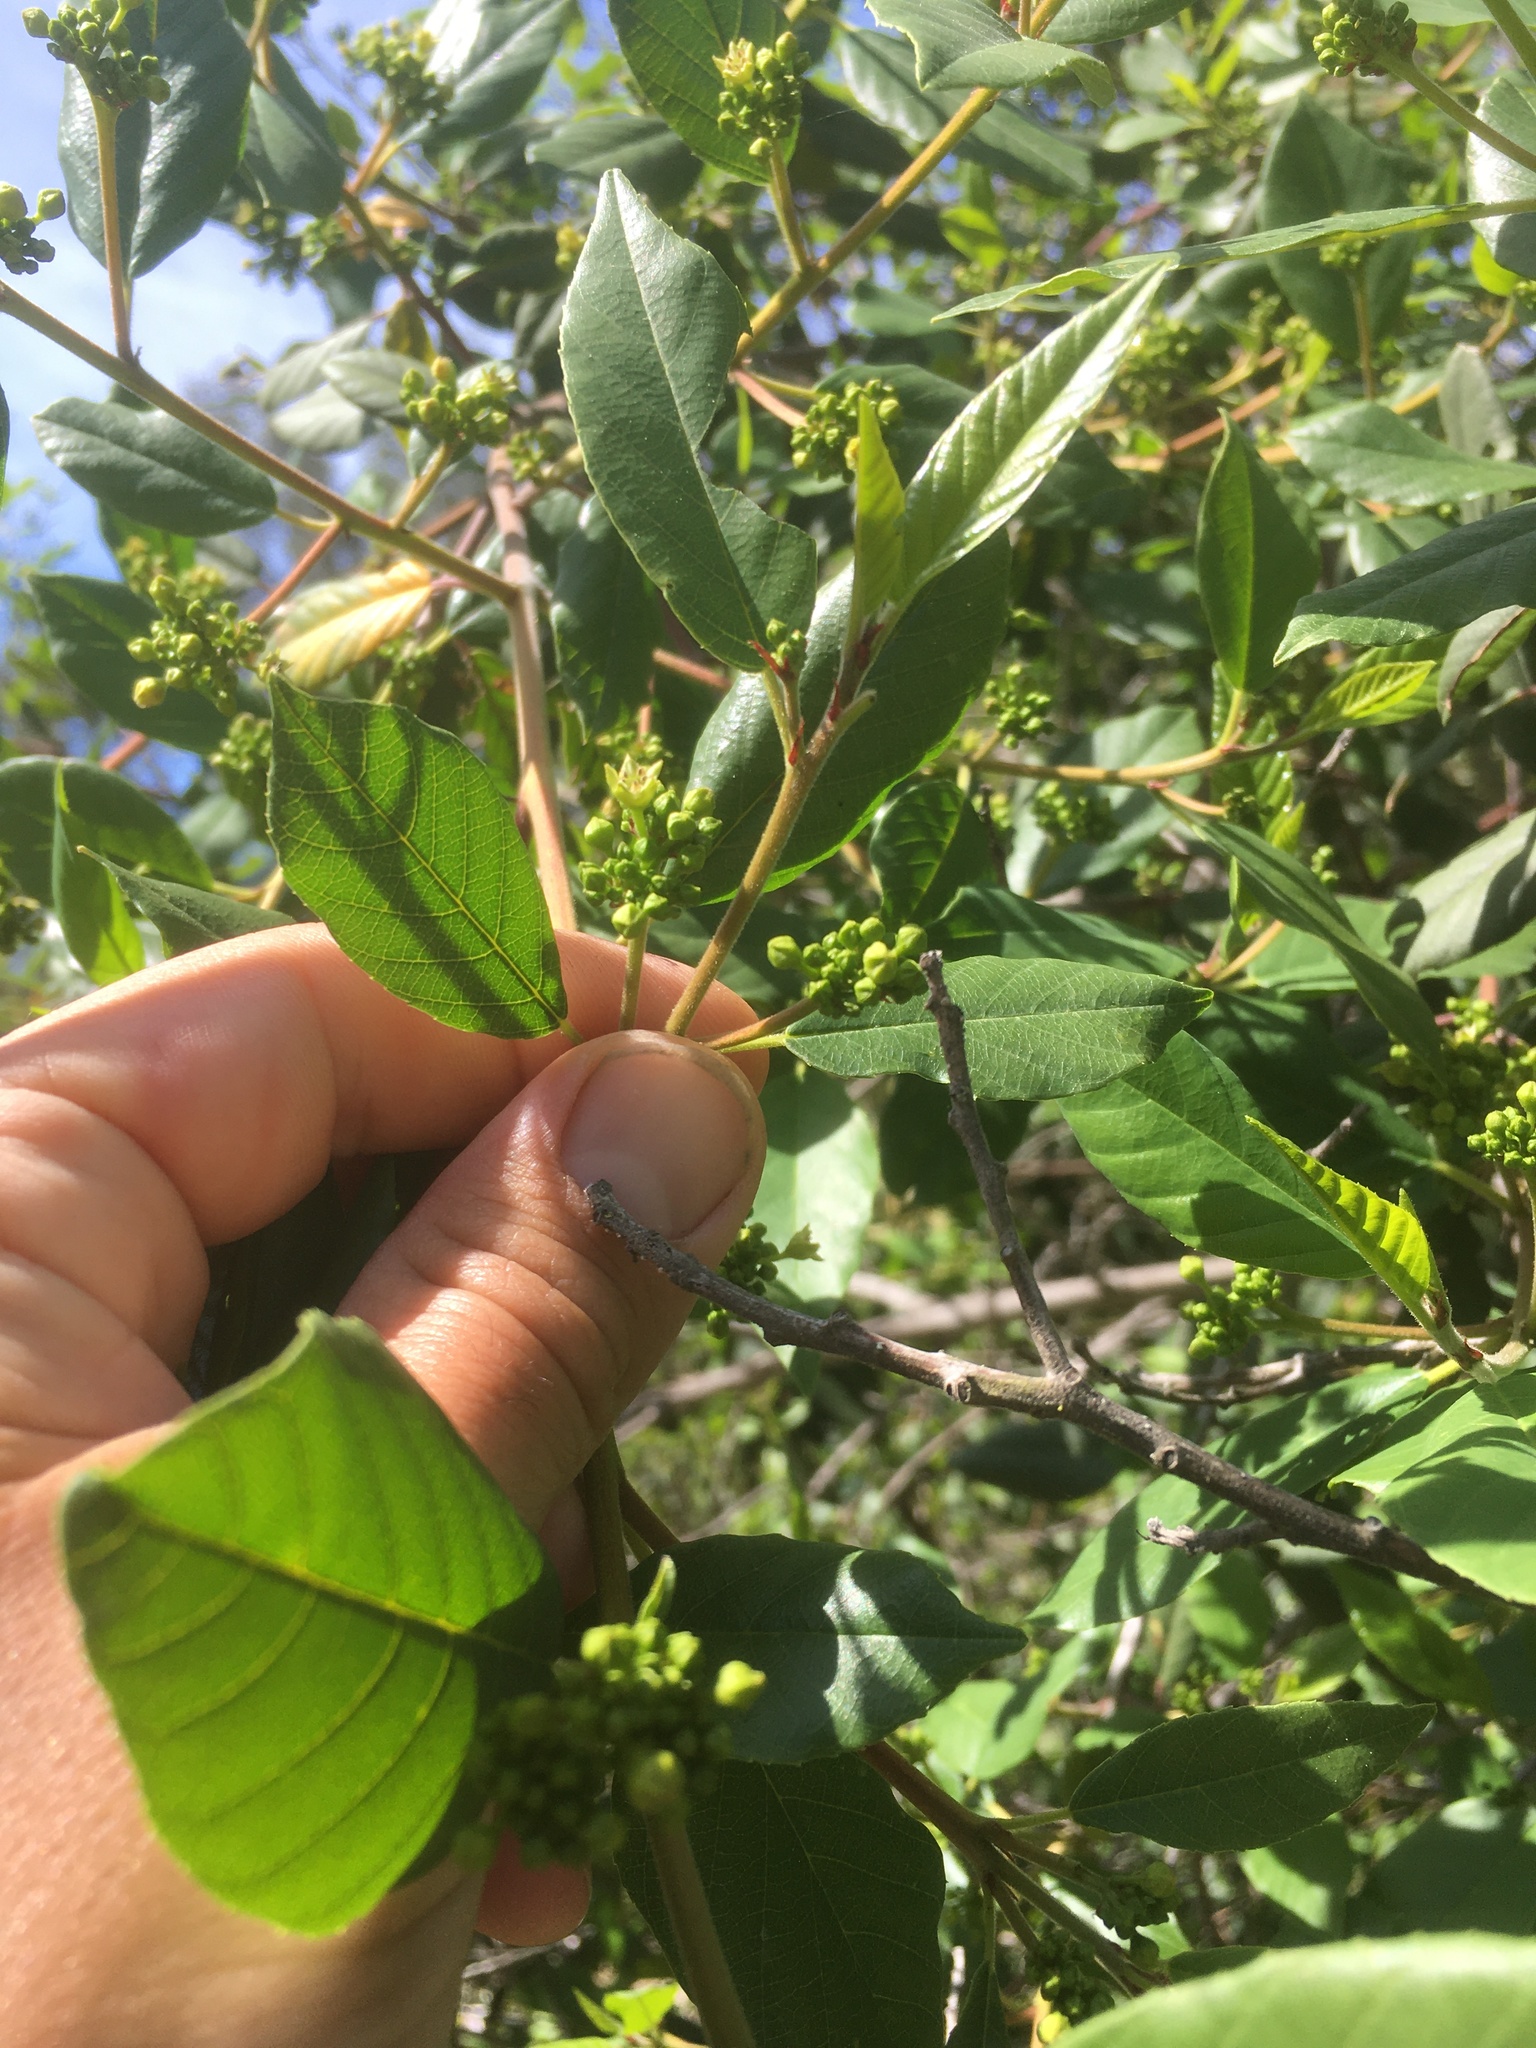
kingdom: Plantae
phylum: Tracheophyta
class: Magnoliopsida
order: Rosales
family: Rhamnaceae
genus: Frangula
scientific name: Frangula californica
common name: California buckthorn
